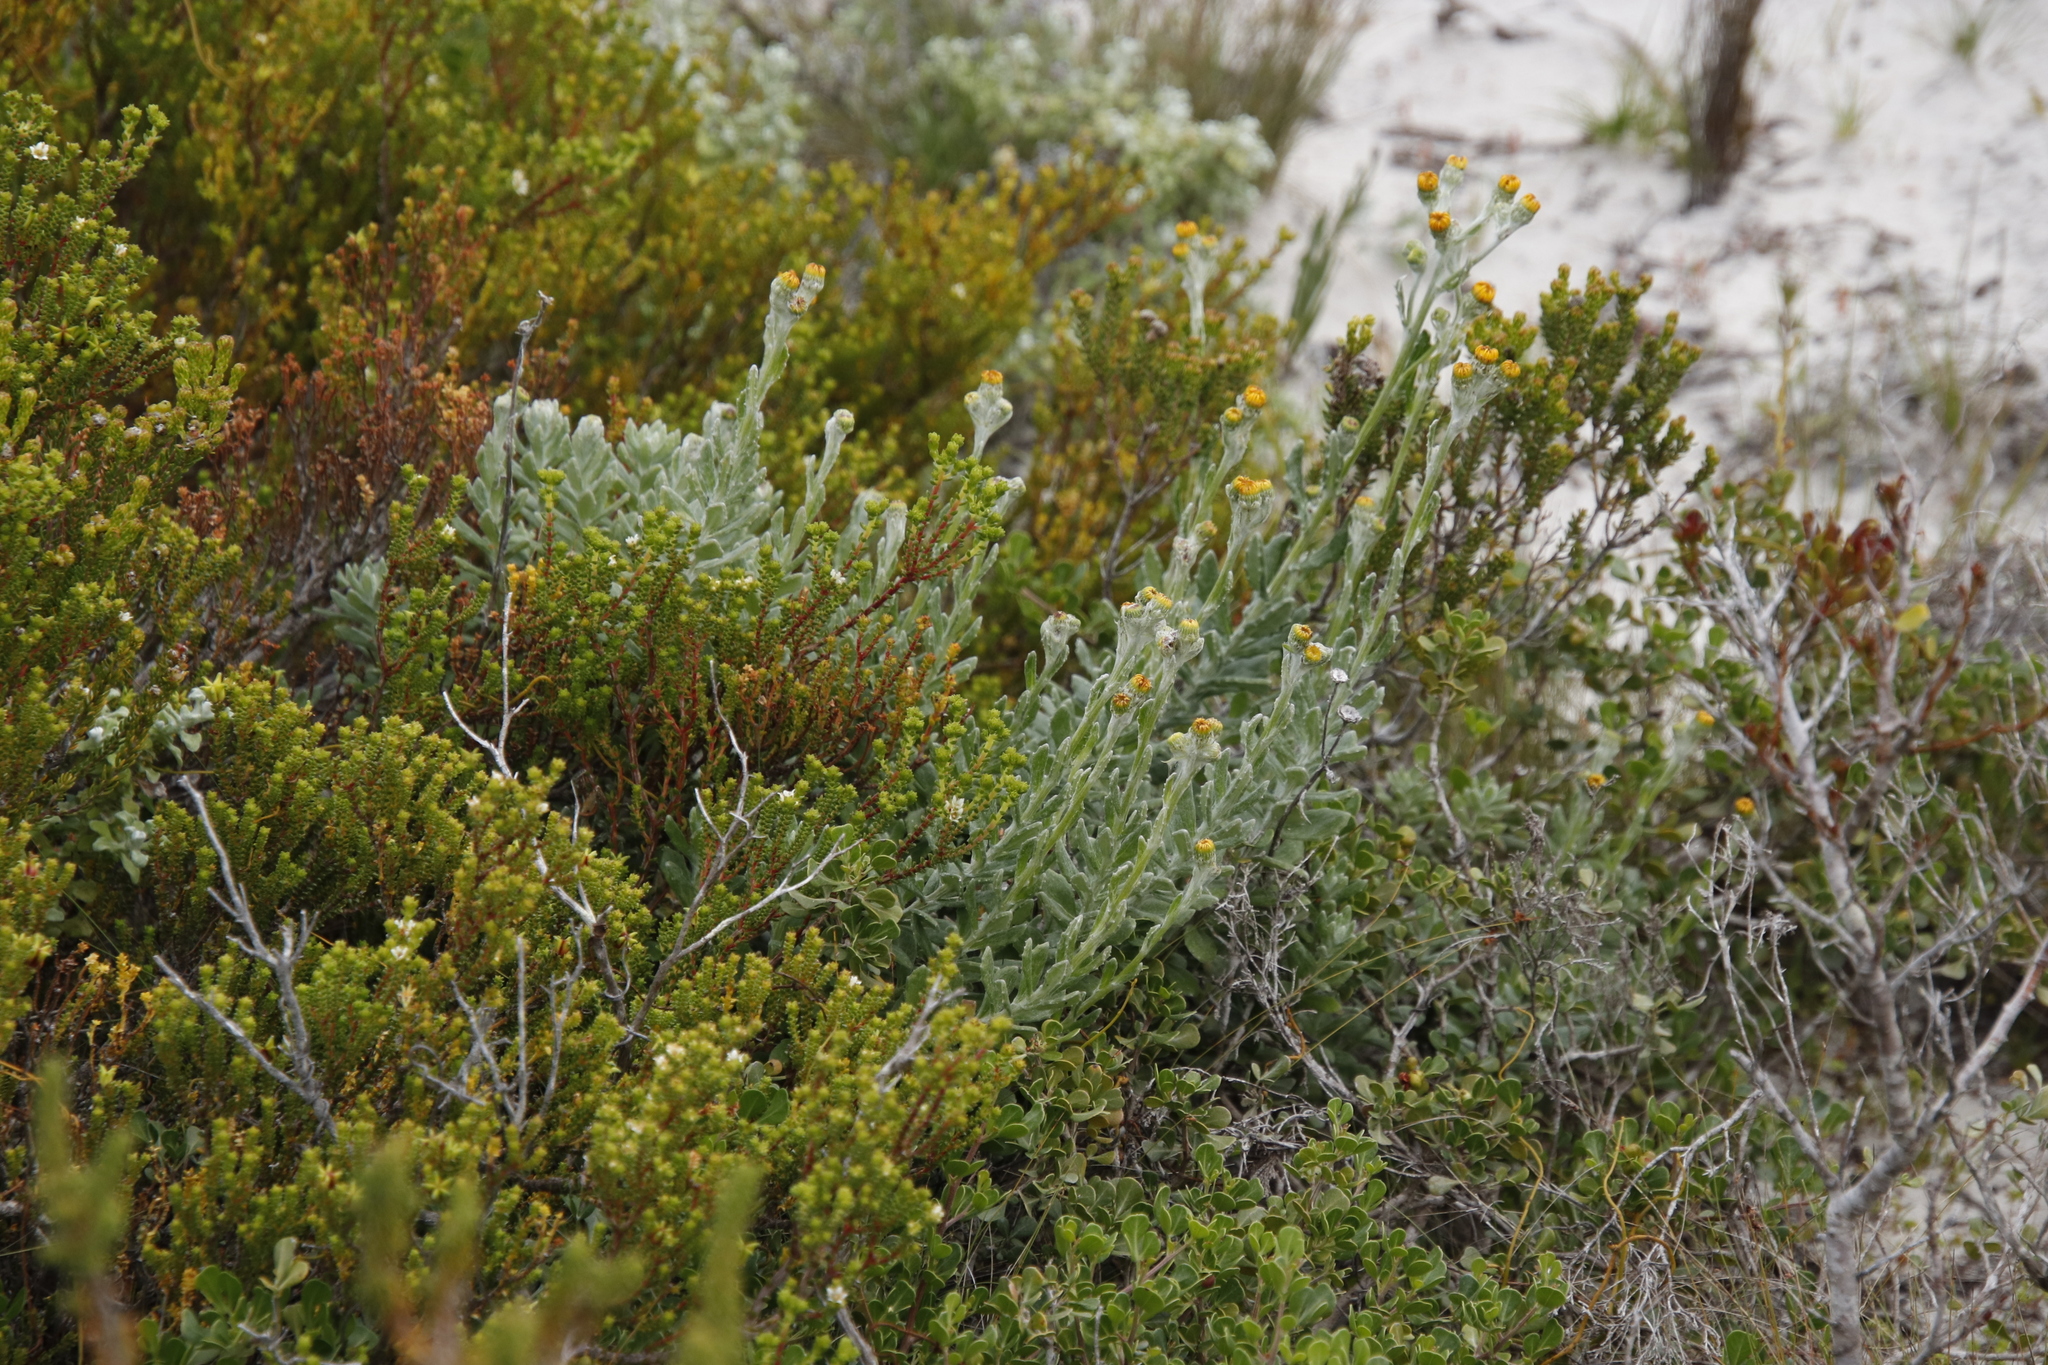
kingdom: Plantae
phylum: Tracheophyta
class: Magnoliopsida
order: Asterales
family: Asteraceae
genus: Senecio
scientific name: Senecio arniciflorus
